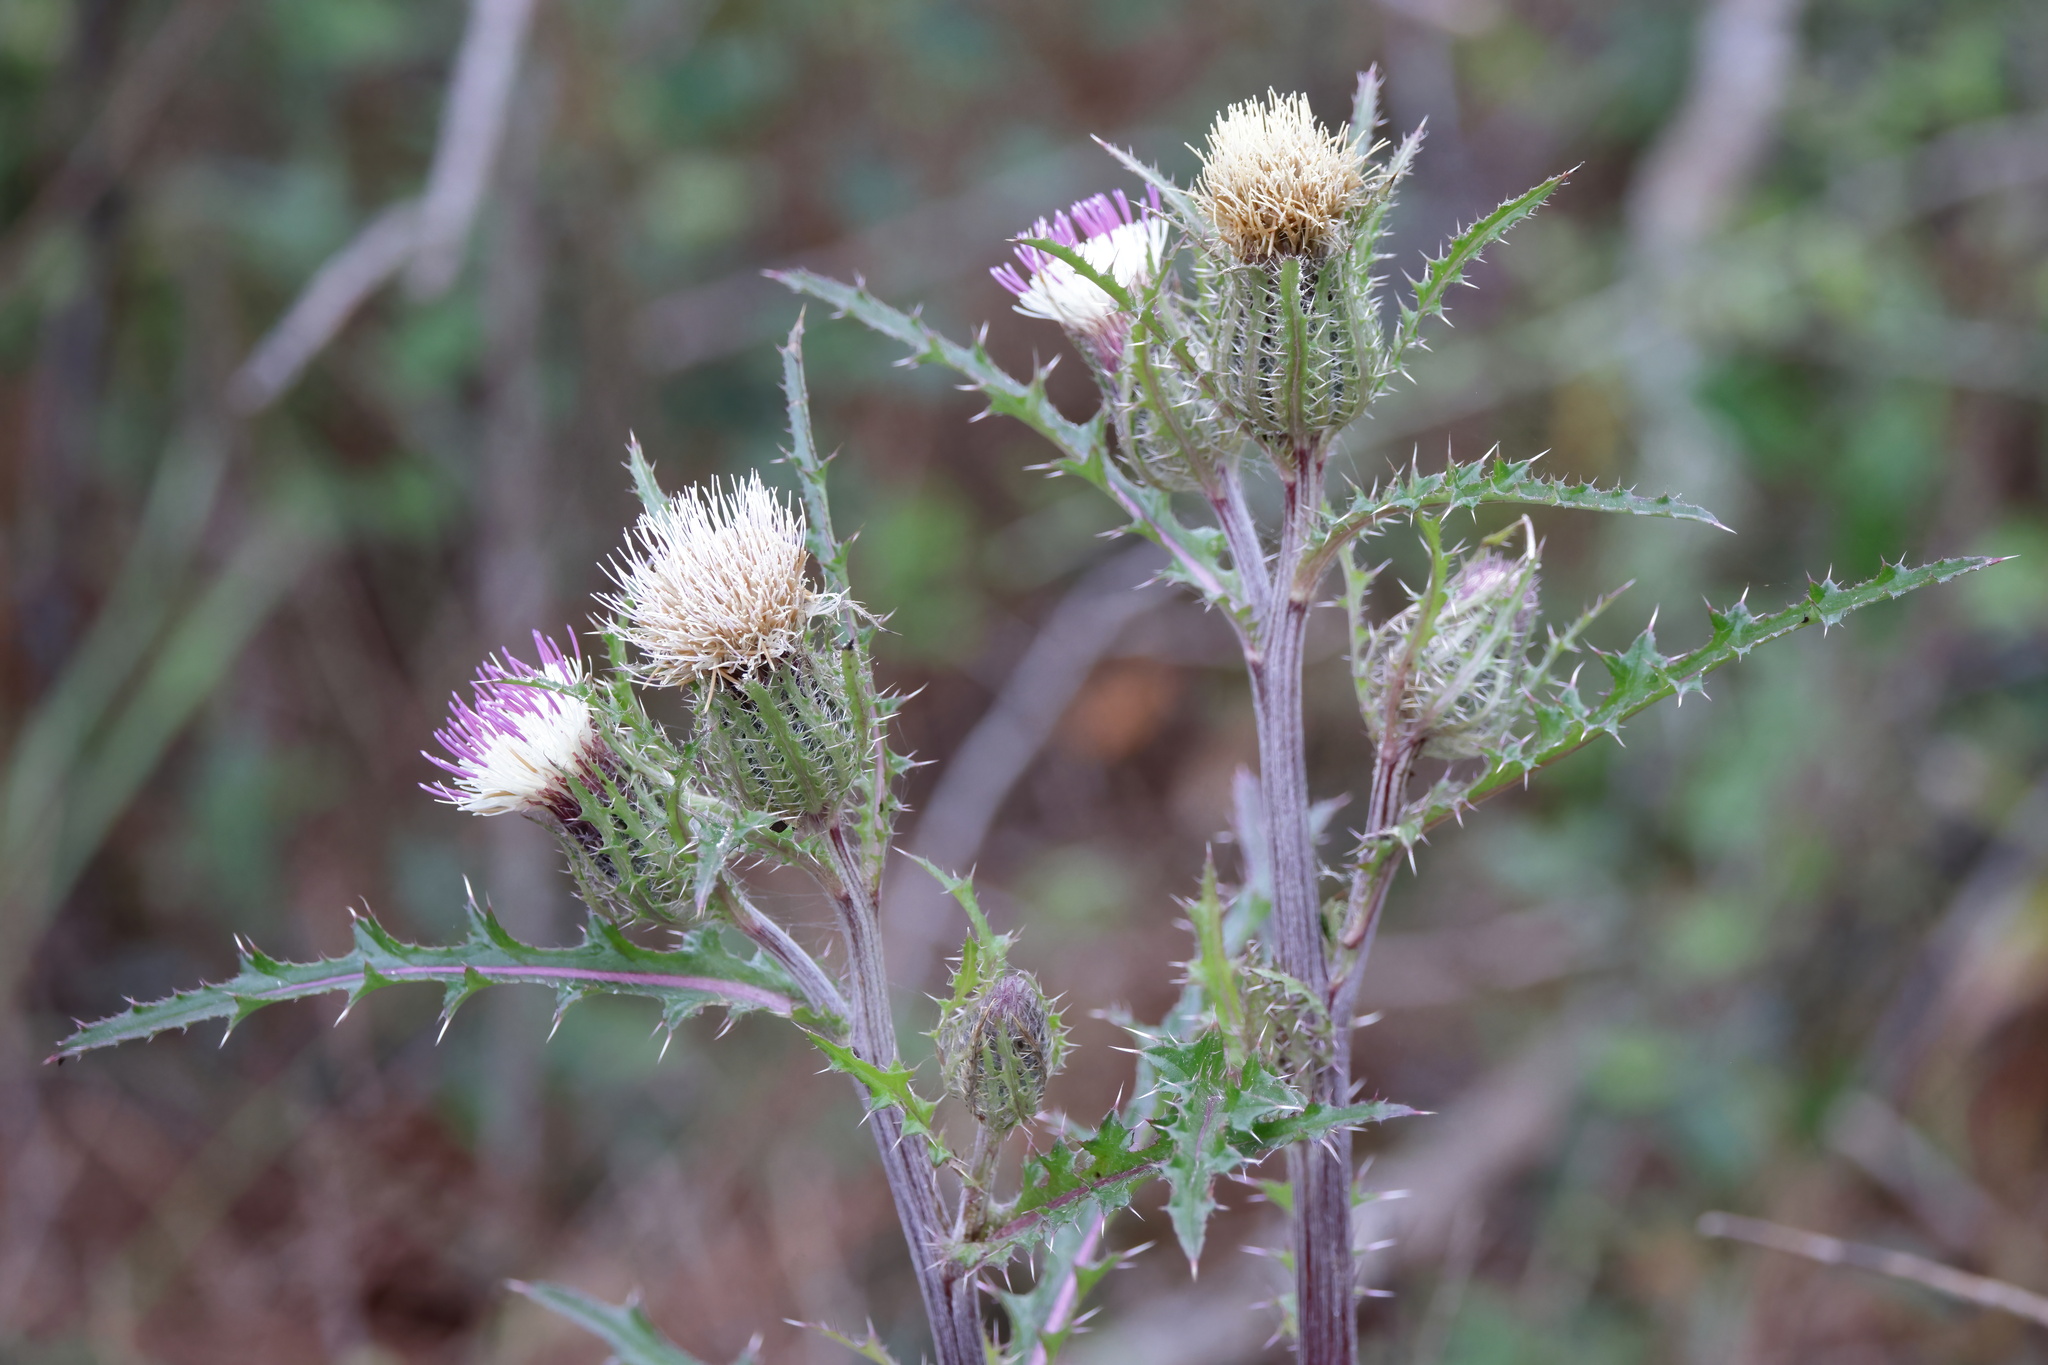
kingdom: Plantae
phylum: Tracheophyta
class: Magnoliopsida
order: Asterales
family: Asteraceae
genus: Cirsium
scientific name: Cirsium horridulum
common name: Bristly thistle
